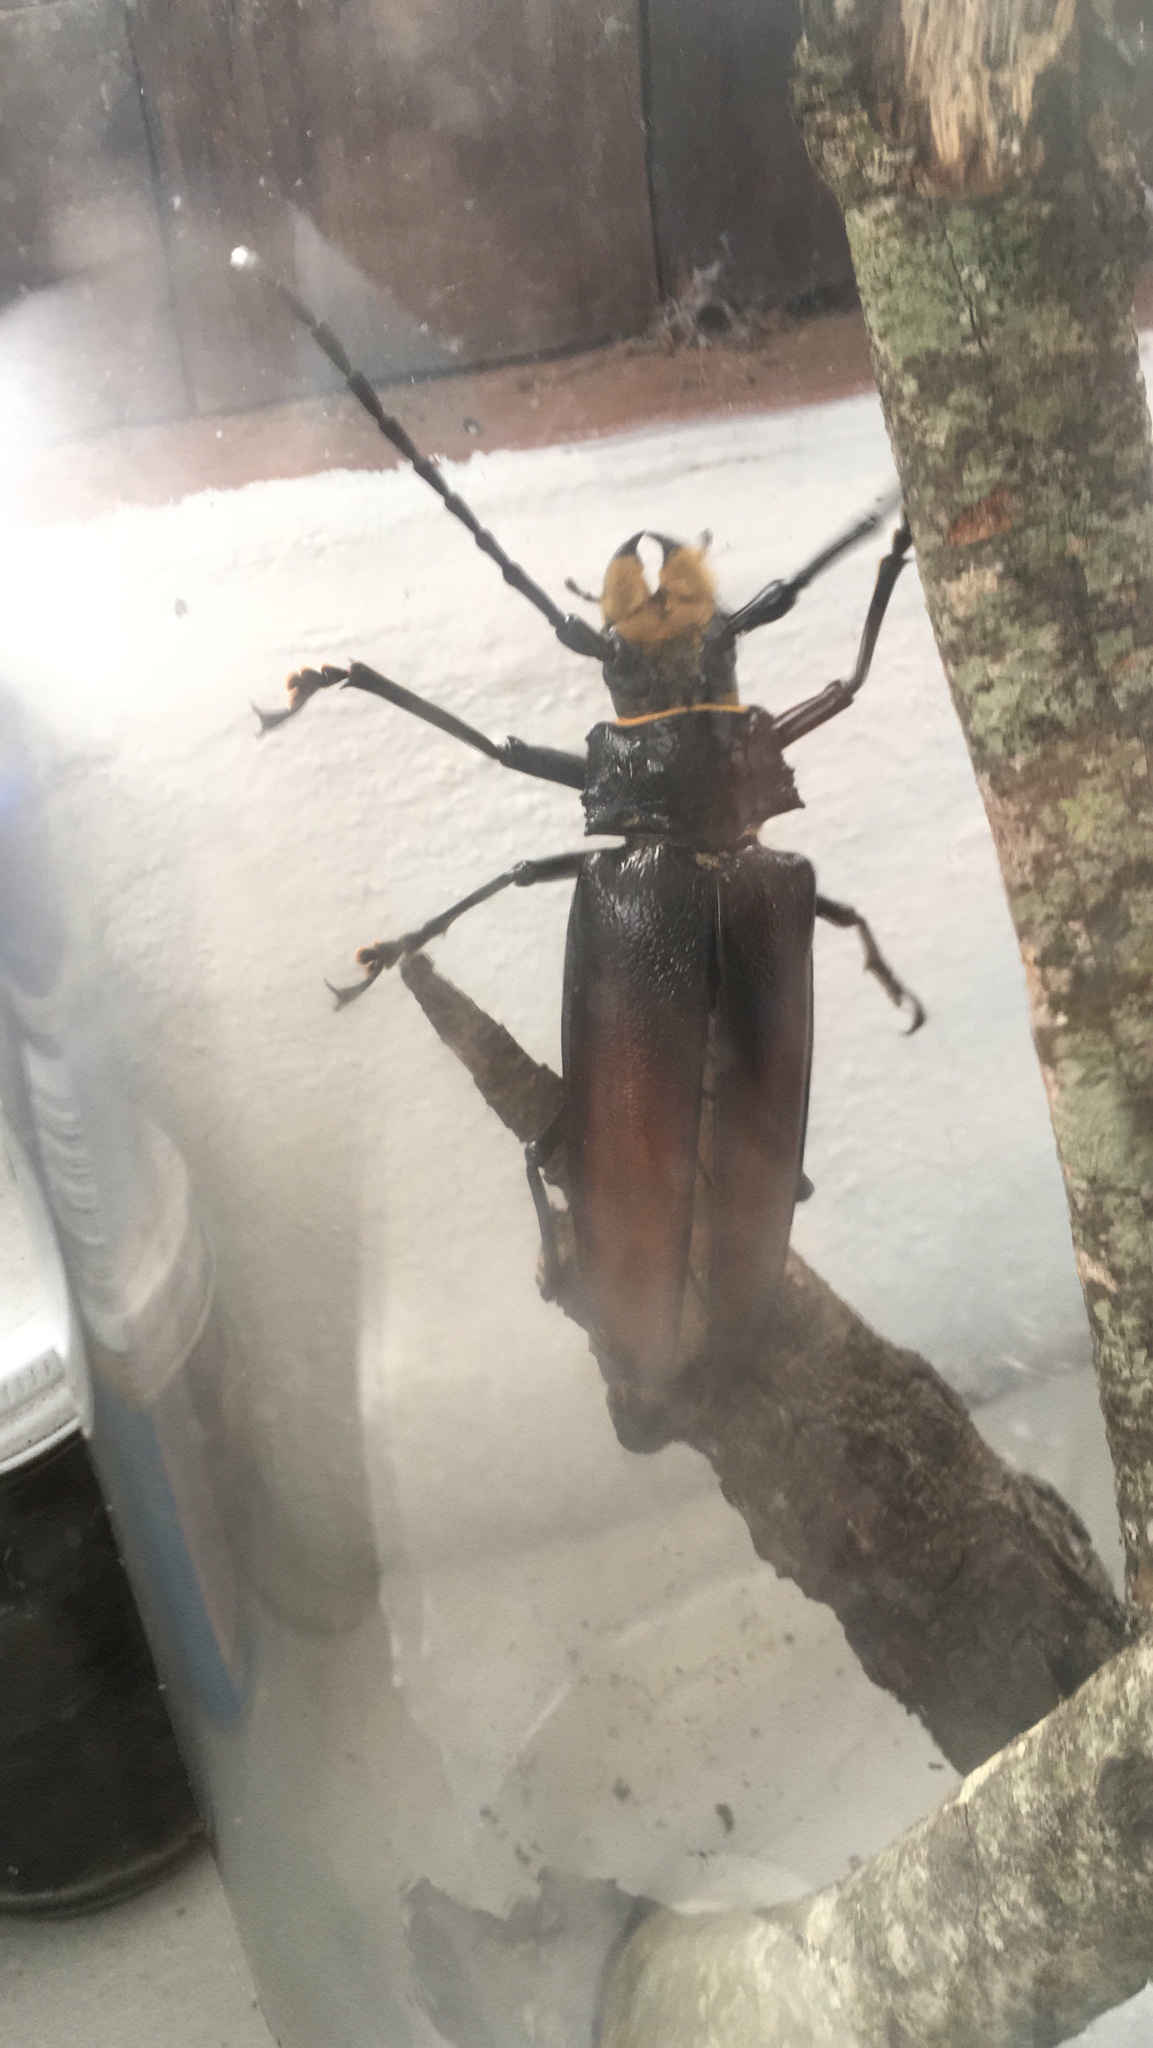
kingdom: Animalia
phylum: Arthropoda
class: Insecta
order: Coleoptera
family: Cerambycidae
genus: Callipogon
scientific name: Callipogon senex
